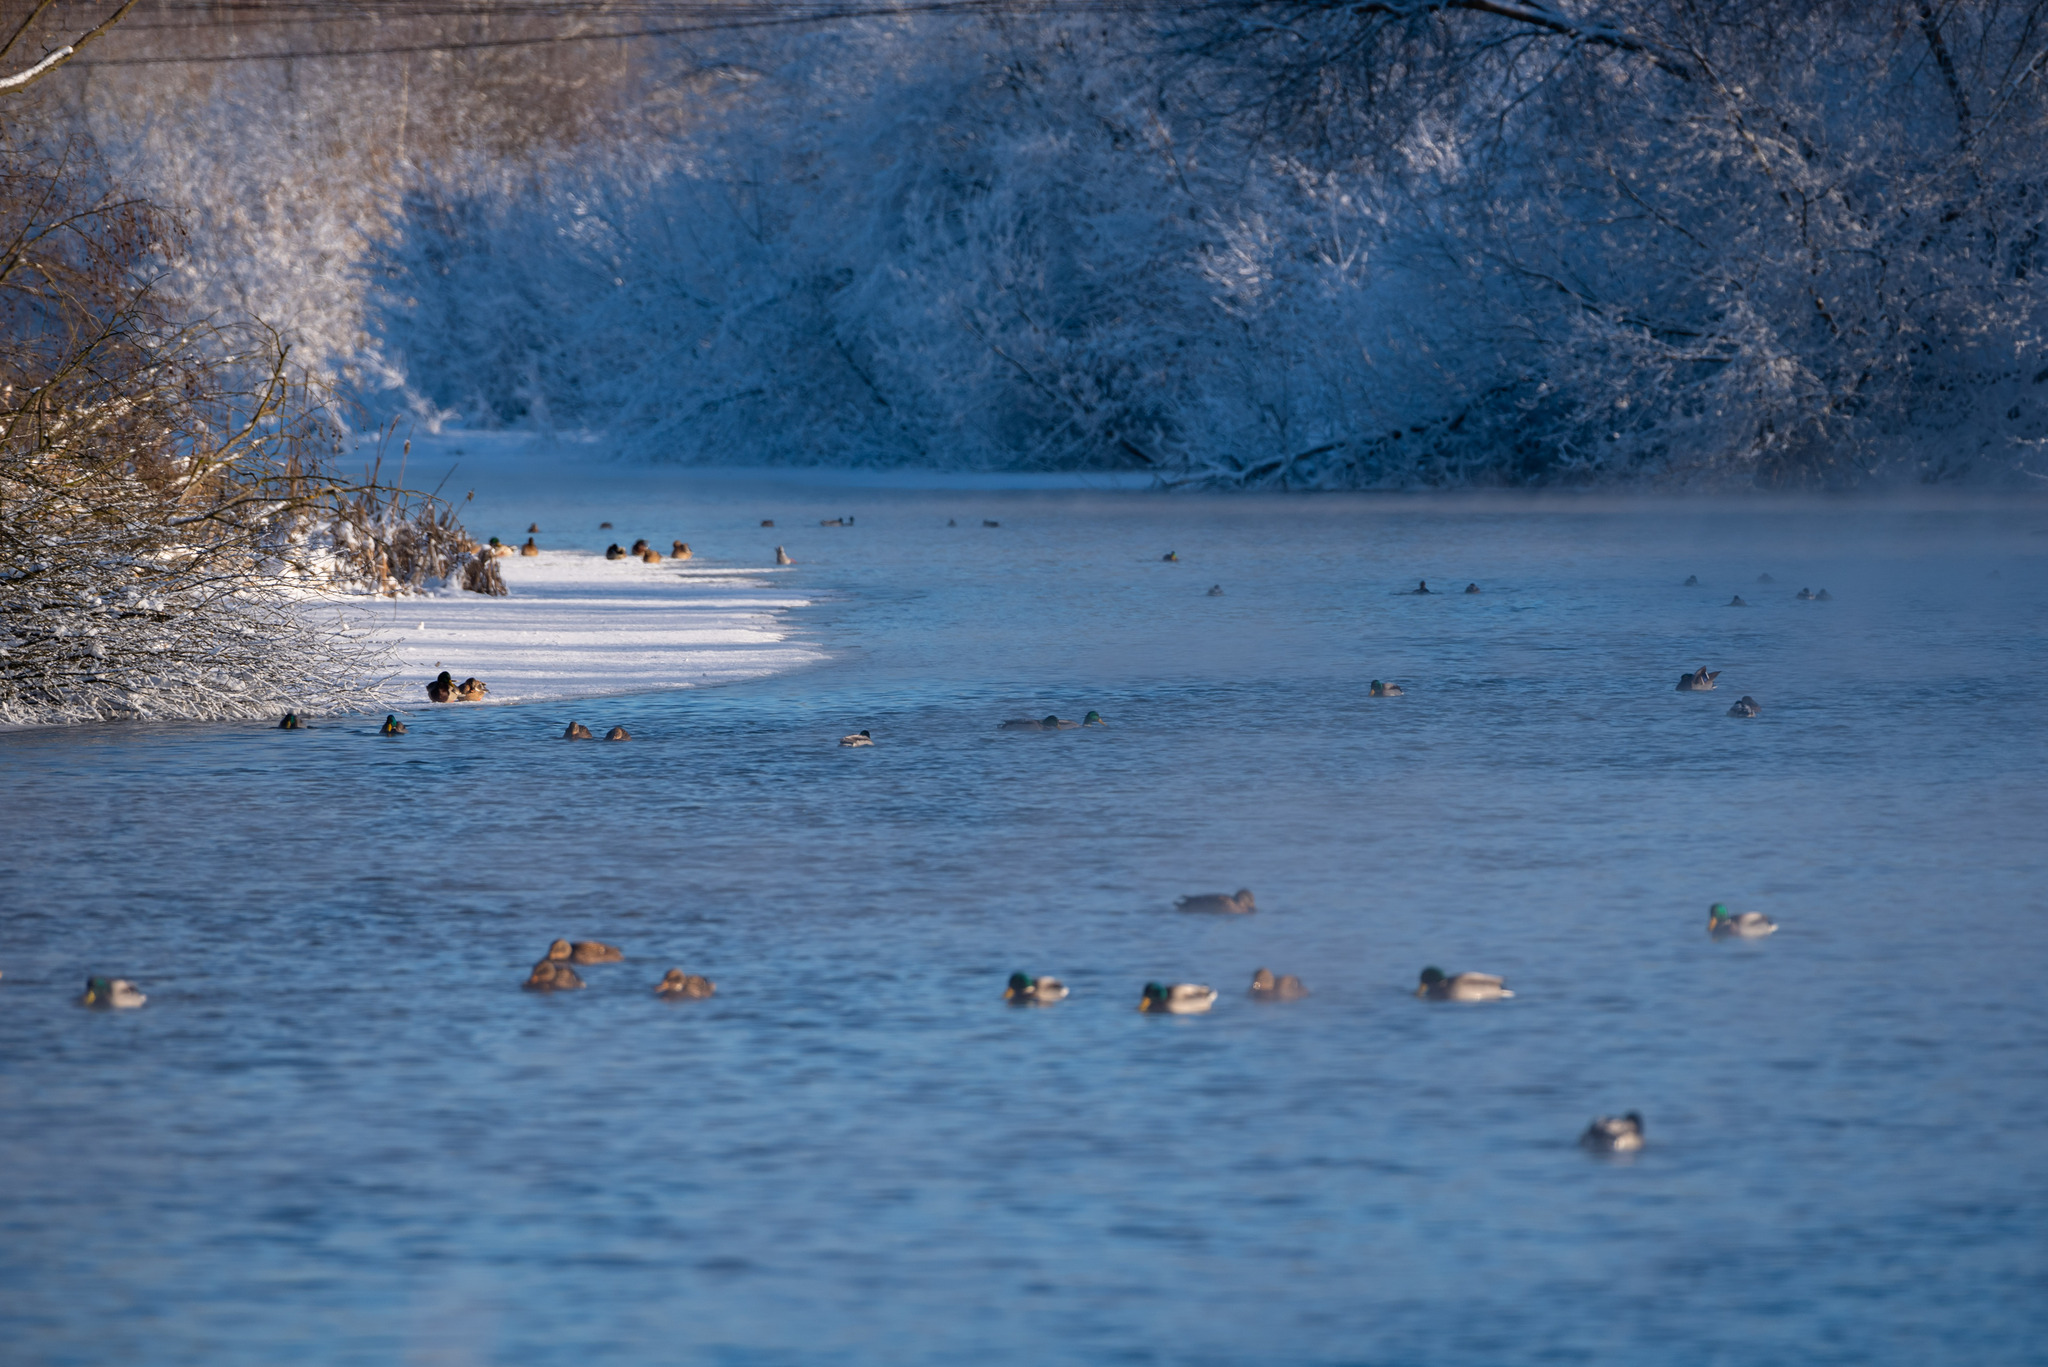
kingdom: Animalia
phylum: Chordata
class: Aves
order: Anseriformes
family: Anatidae
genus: Anas
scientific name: Anas platyrhynchos
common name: Mallard
